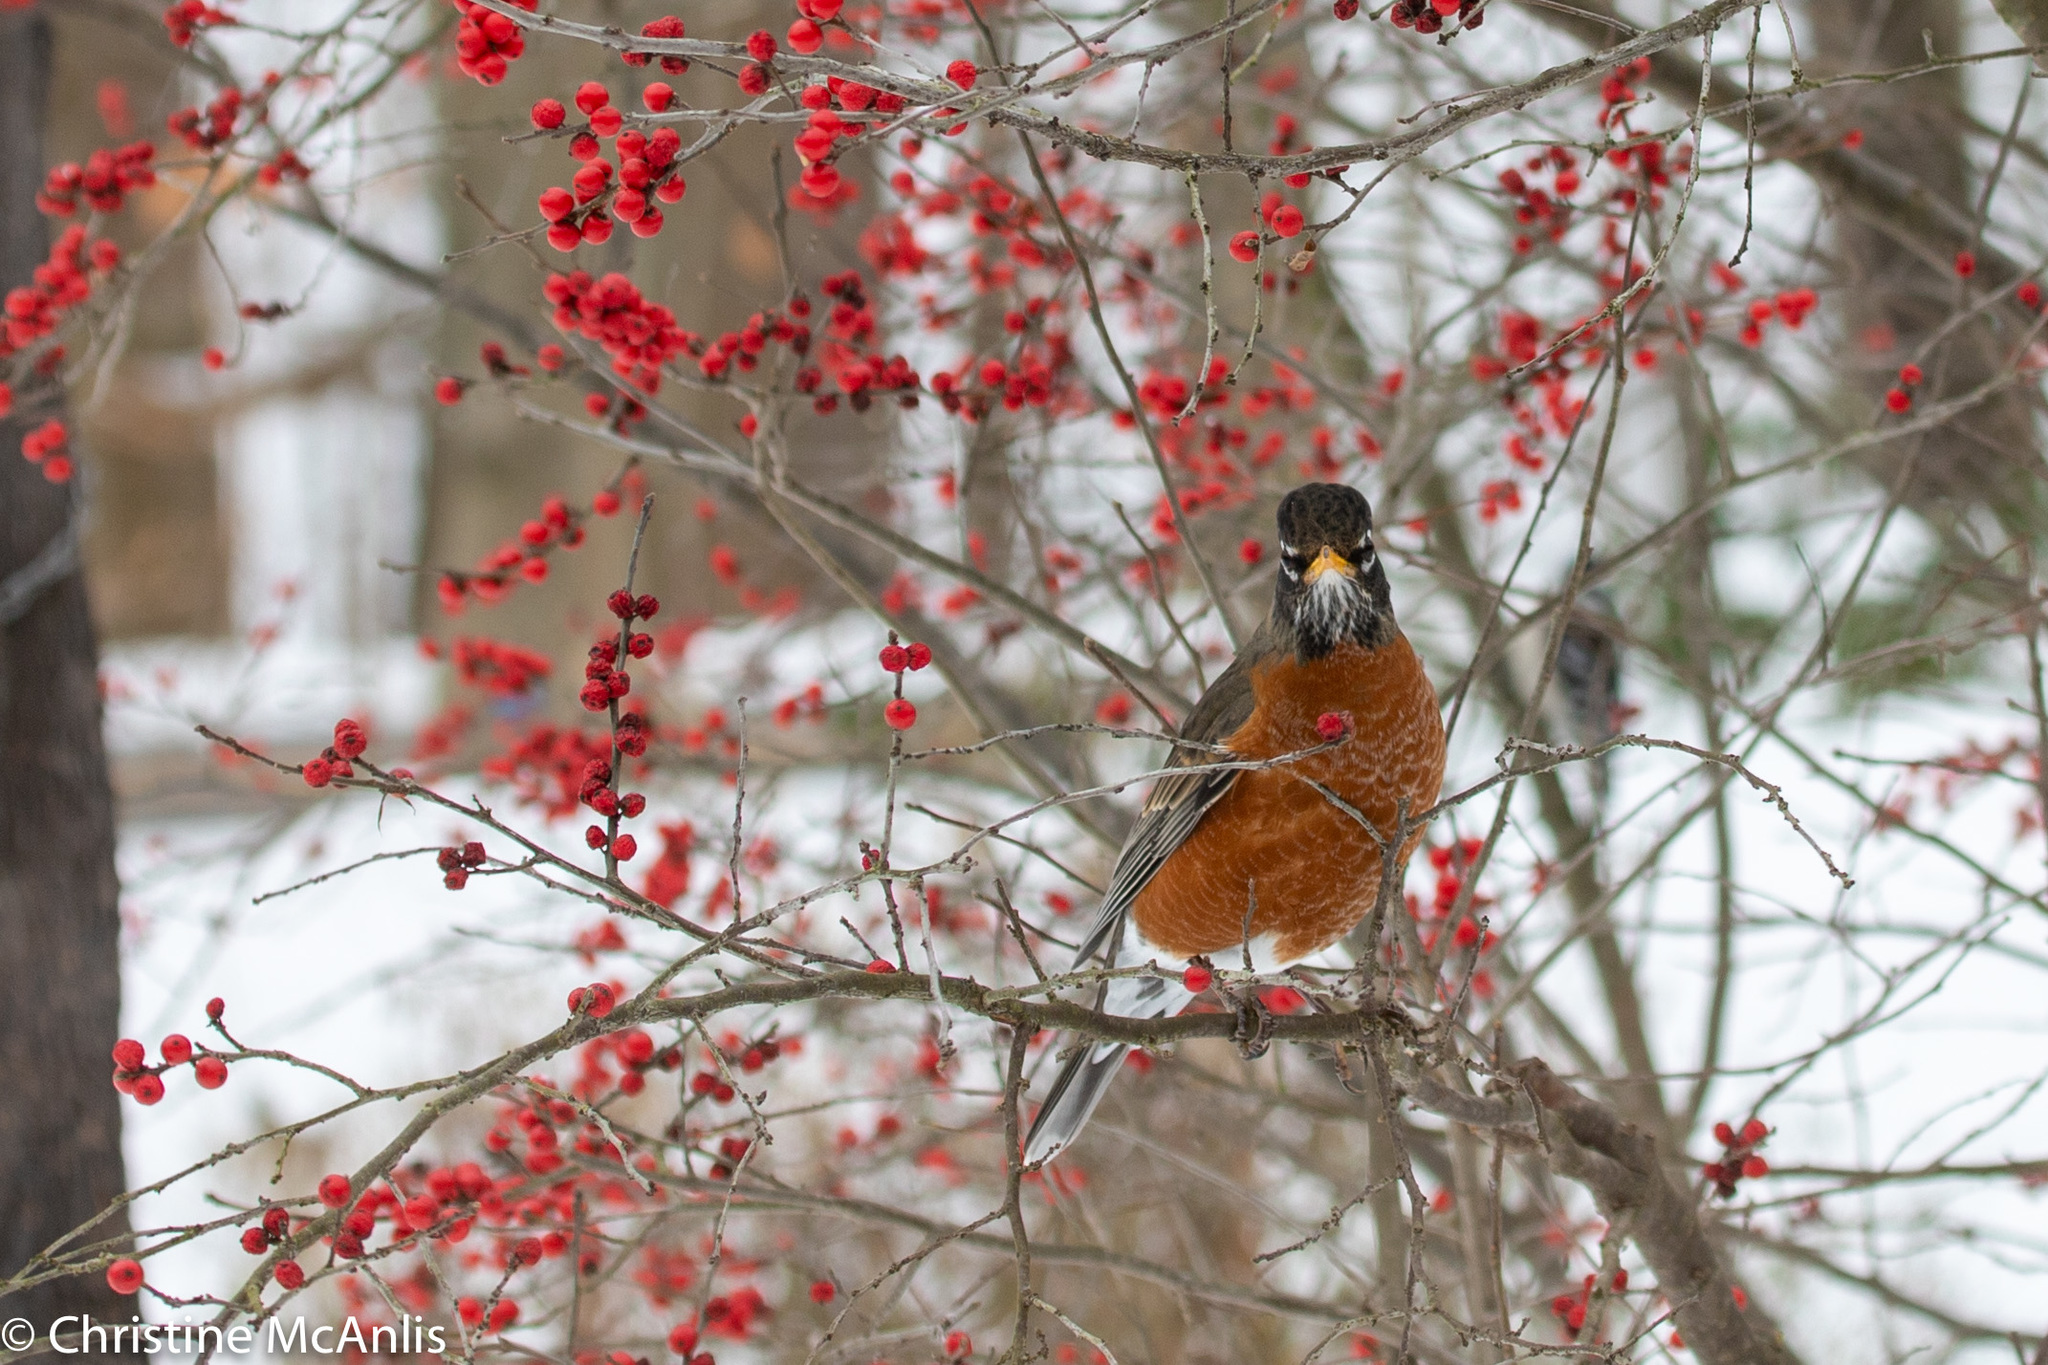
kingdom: Animalia
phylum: Chordata
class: Aves
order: Passeriformes
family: Turdidae
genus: Turdus
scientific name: Turdus migratorius
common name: American robin
